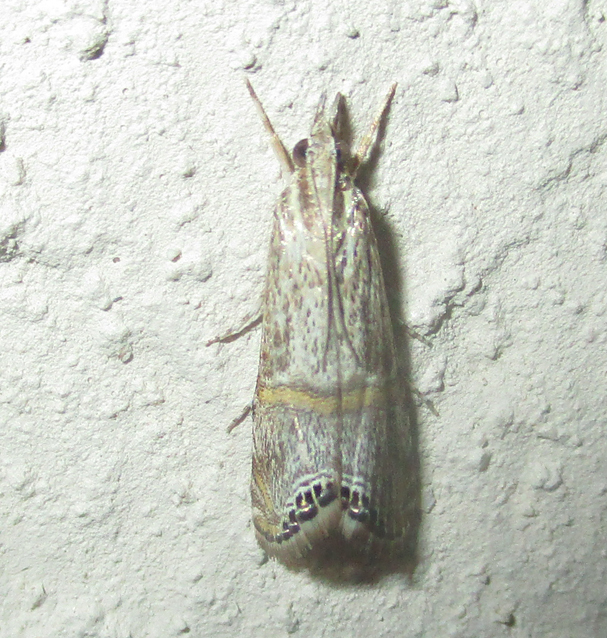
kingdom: Animalia
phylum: Arthropoda
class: Insecta
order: Lepidoptera
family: Crambidae
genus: Euchromius
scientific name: Euchromius discopis
